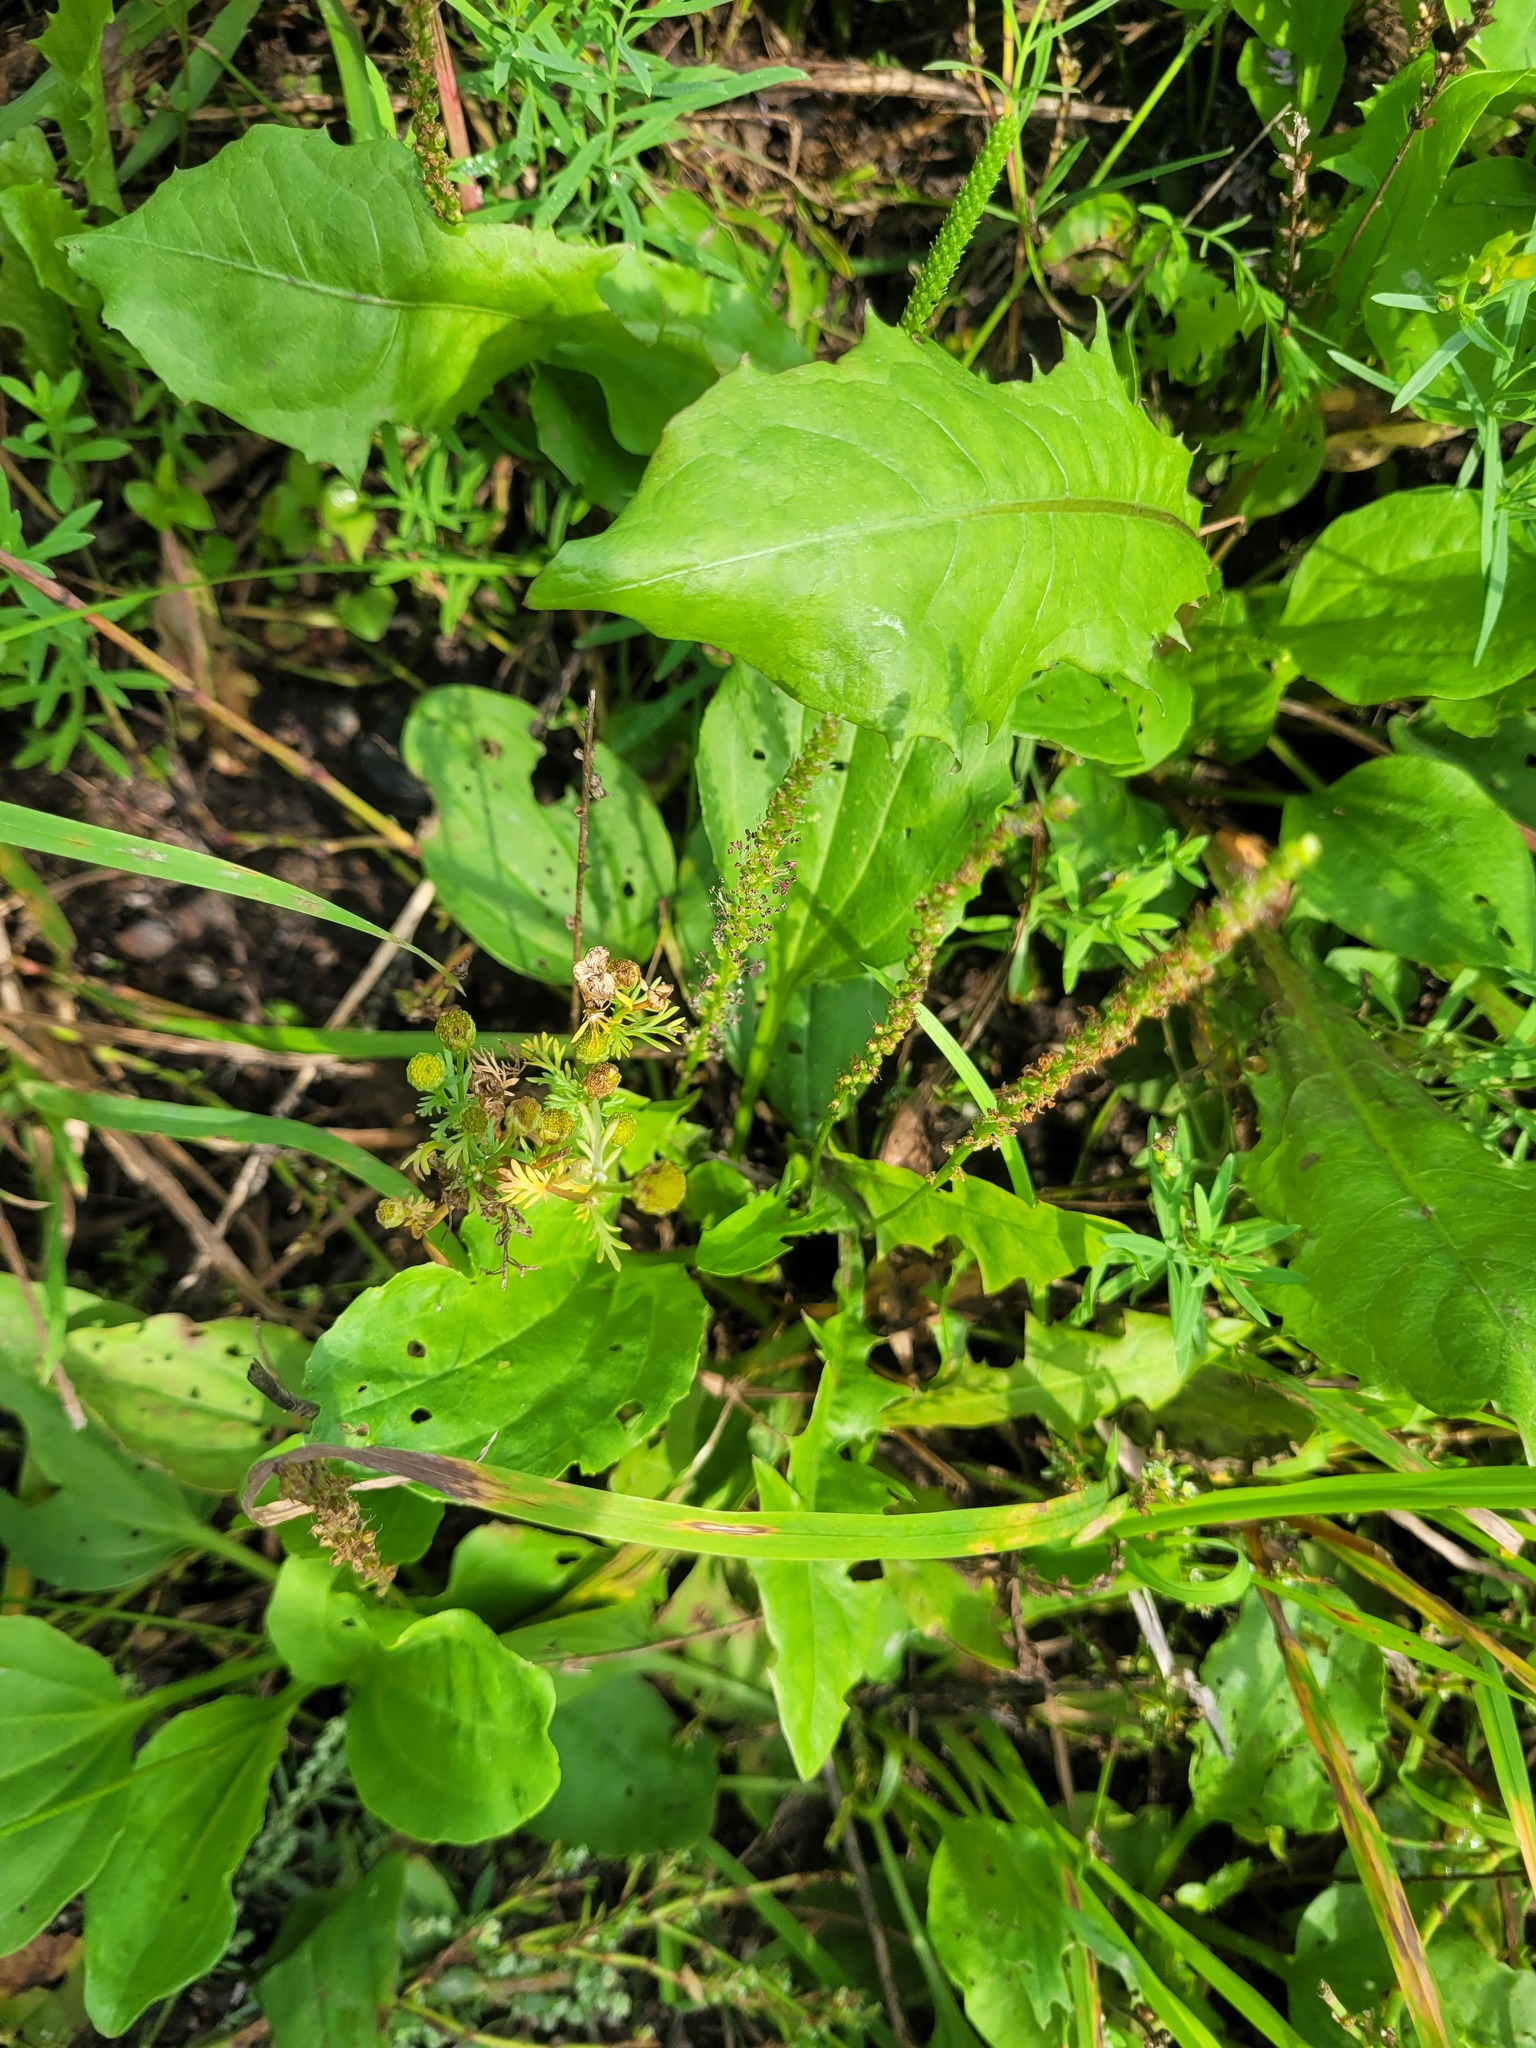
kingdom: Plantae
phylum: Tracheophyta
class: Magnoliopsida
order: Asterales
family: Asteraceae
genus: Matricaria
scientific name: Matricaria discoidea
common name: Disc mayweed
